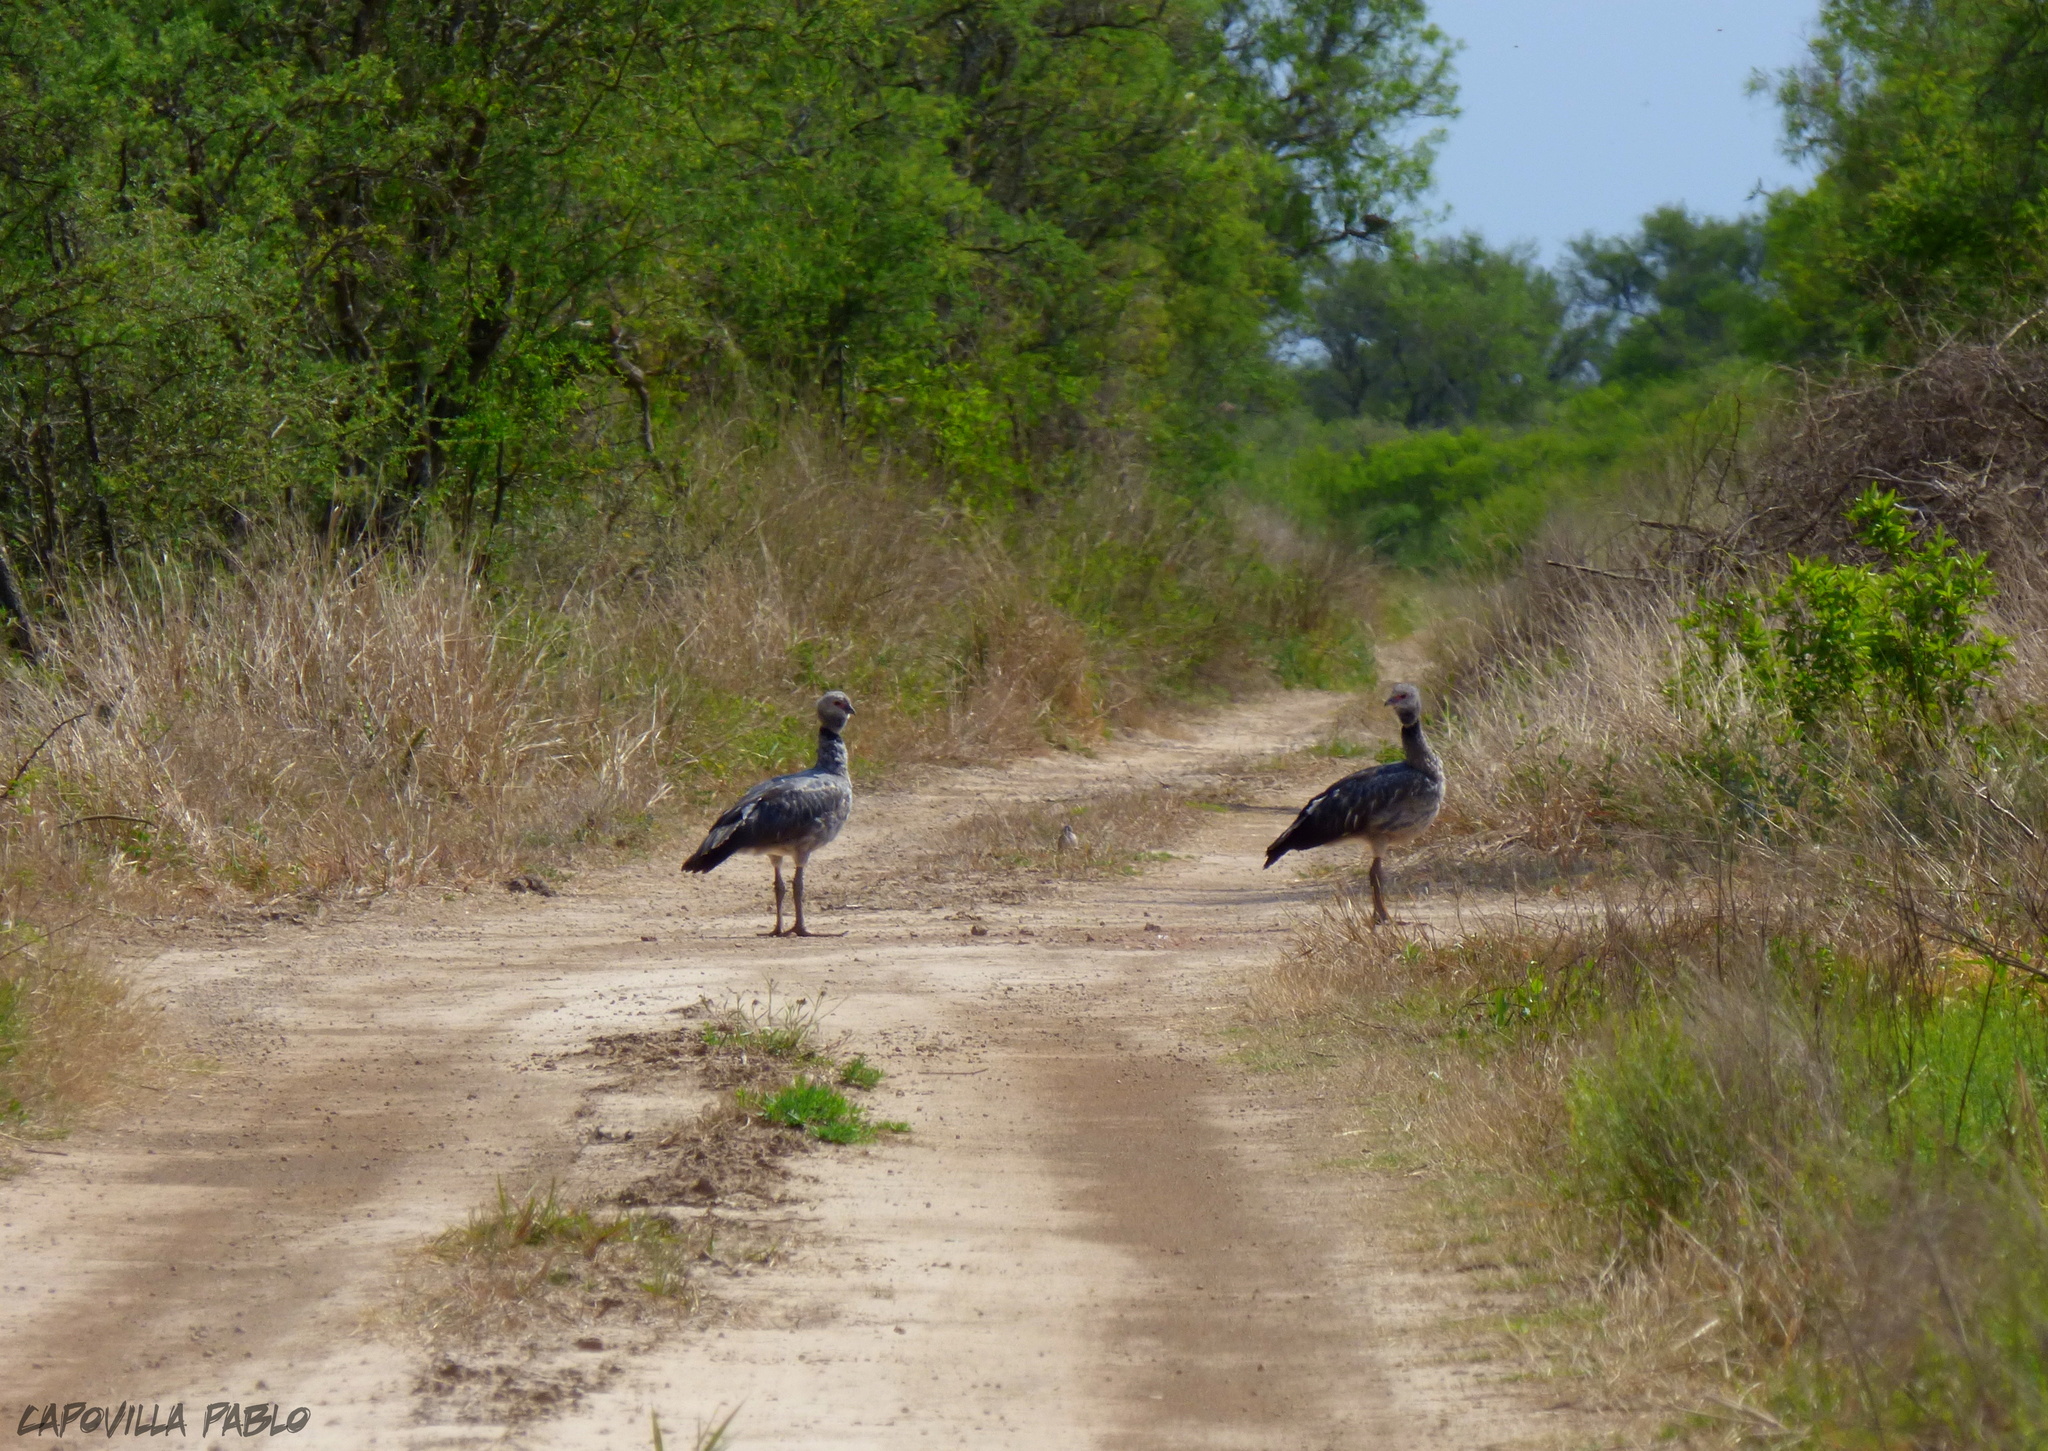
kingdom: Animalia
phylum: Chordata
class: Aves
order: Anseriformes
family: Anhimidae
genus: Chauna
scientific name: Chauna torquata
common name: Southern screamer
